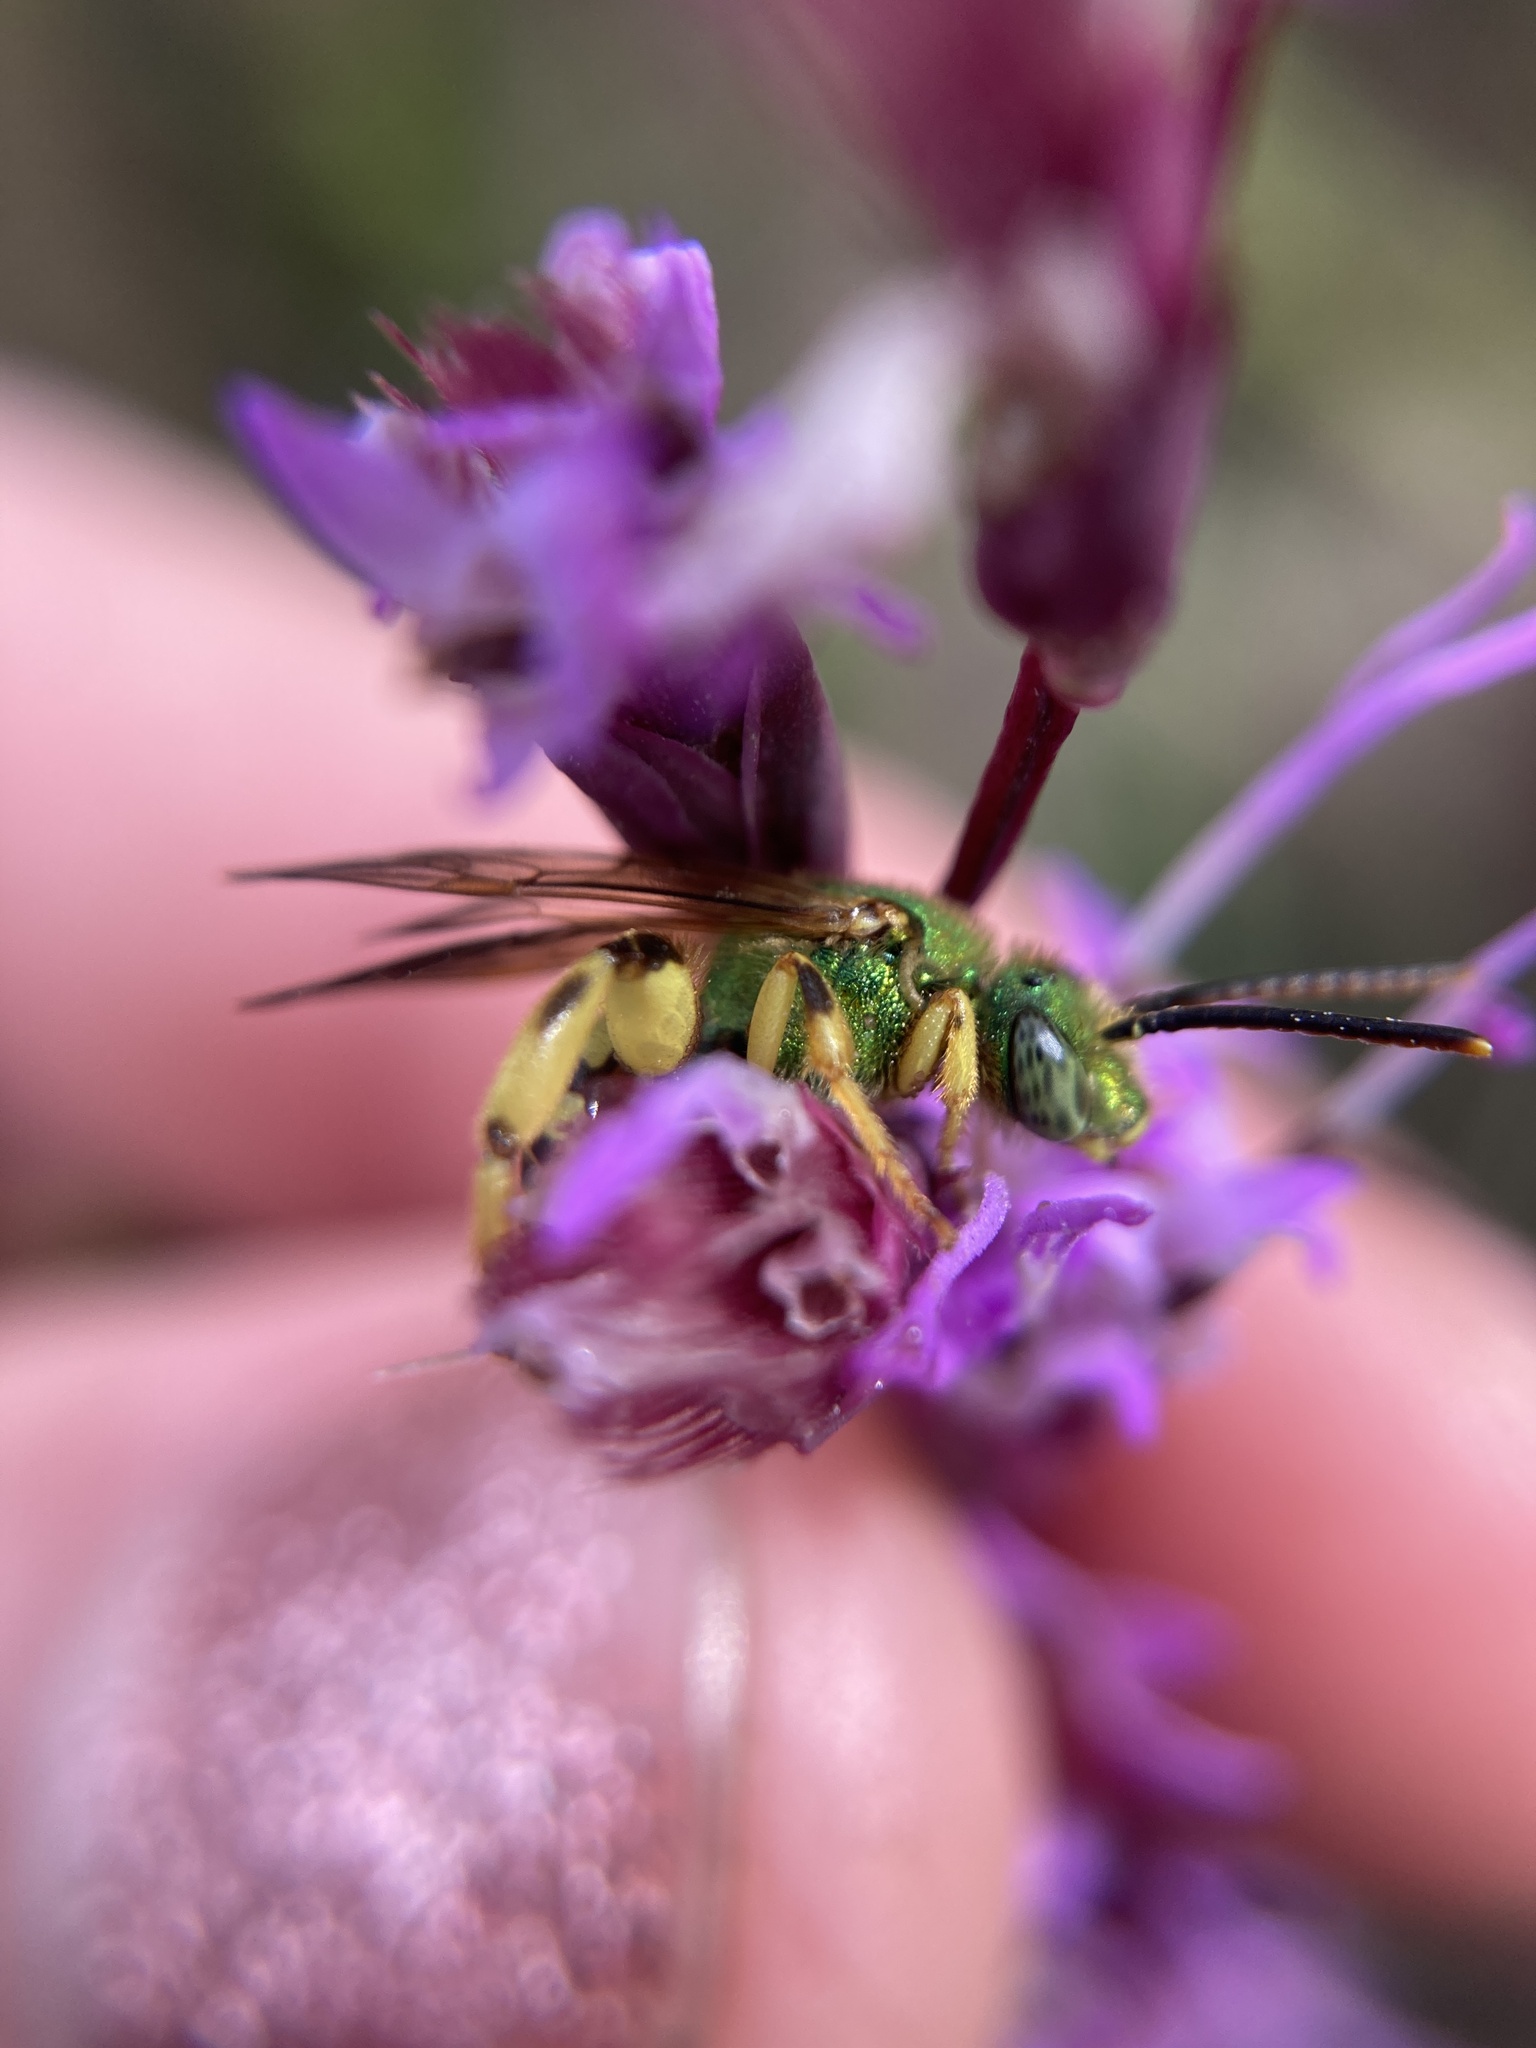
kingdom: Animalia
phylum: Arthropoda
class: Insecta
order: Hymenoptera
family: Halictidae
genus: Agapostemon
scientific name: Agapostemon splendens
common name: Brown-winged striped sweat bee
